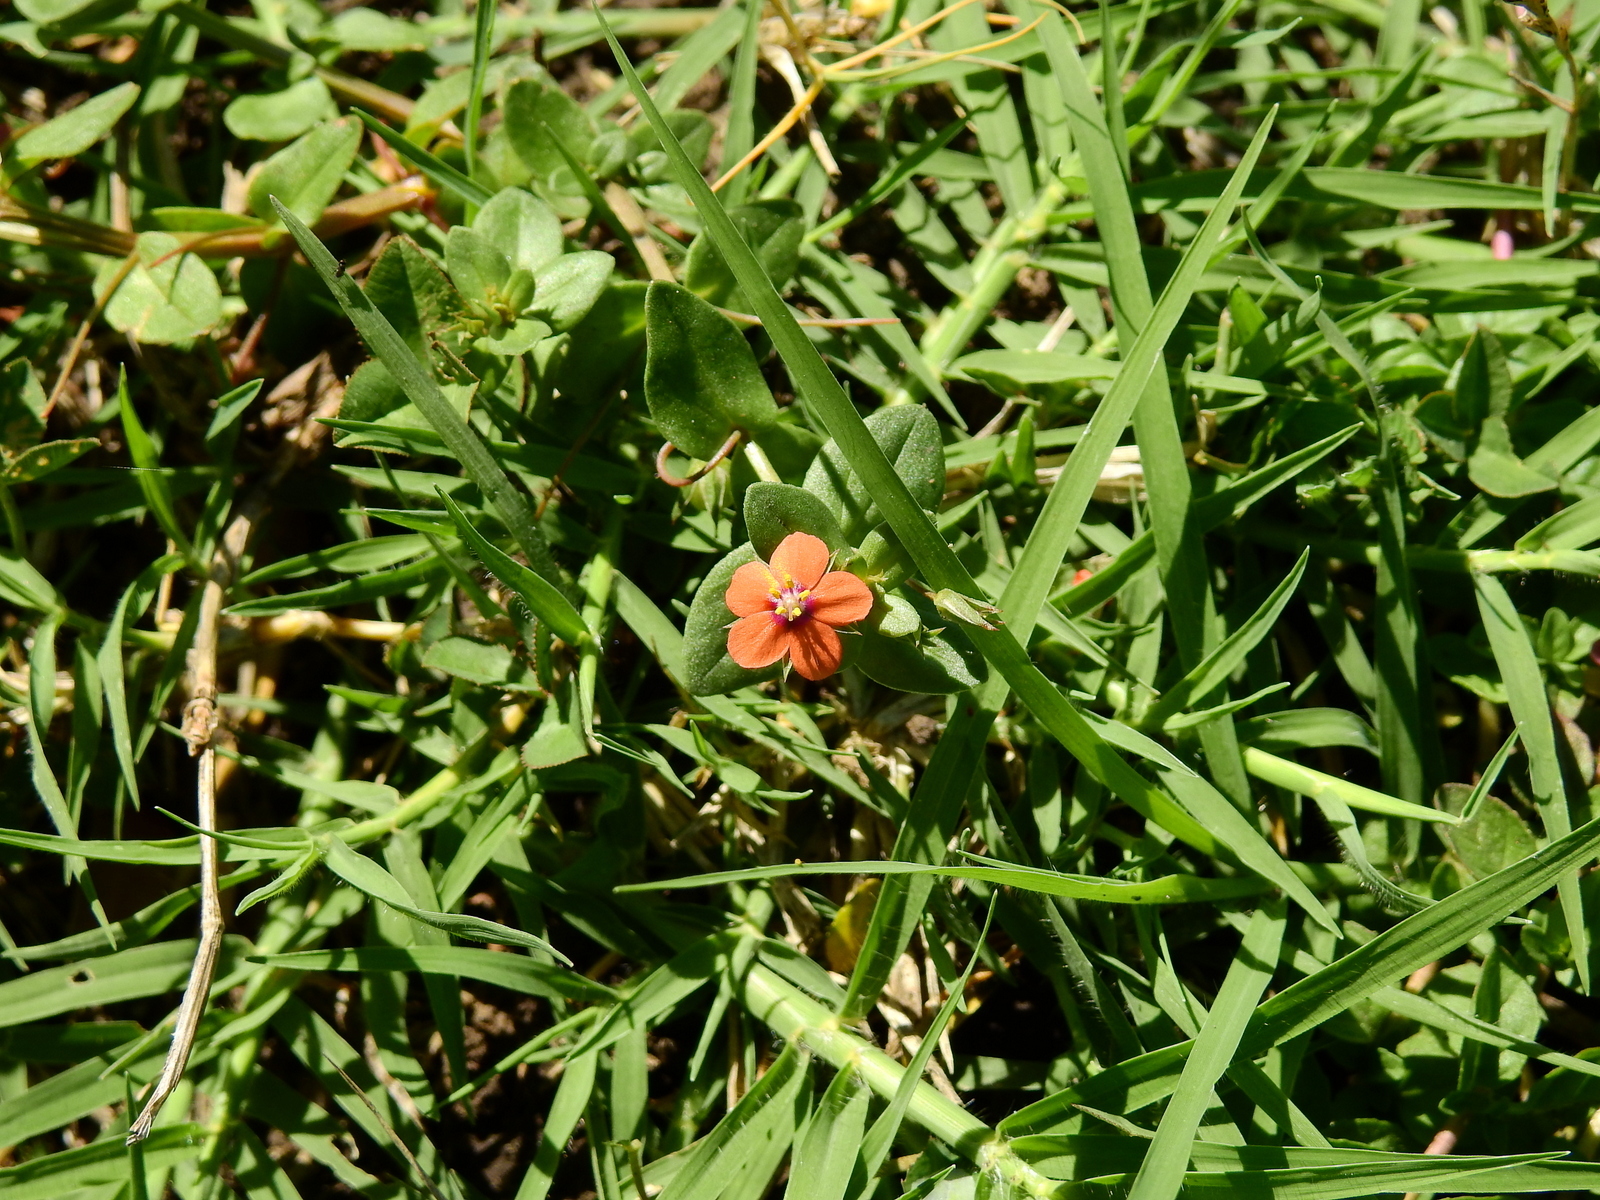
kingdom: Plantae
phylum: Tracheophyta
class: Magnoliopsida
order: Ericales
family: Primulaceae
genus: Lysimachia
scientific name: Lysimachia arvensis
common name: Scarlet pimpernel
